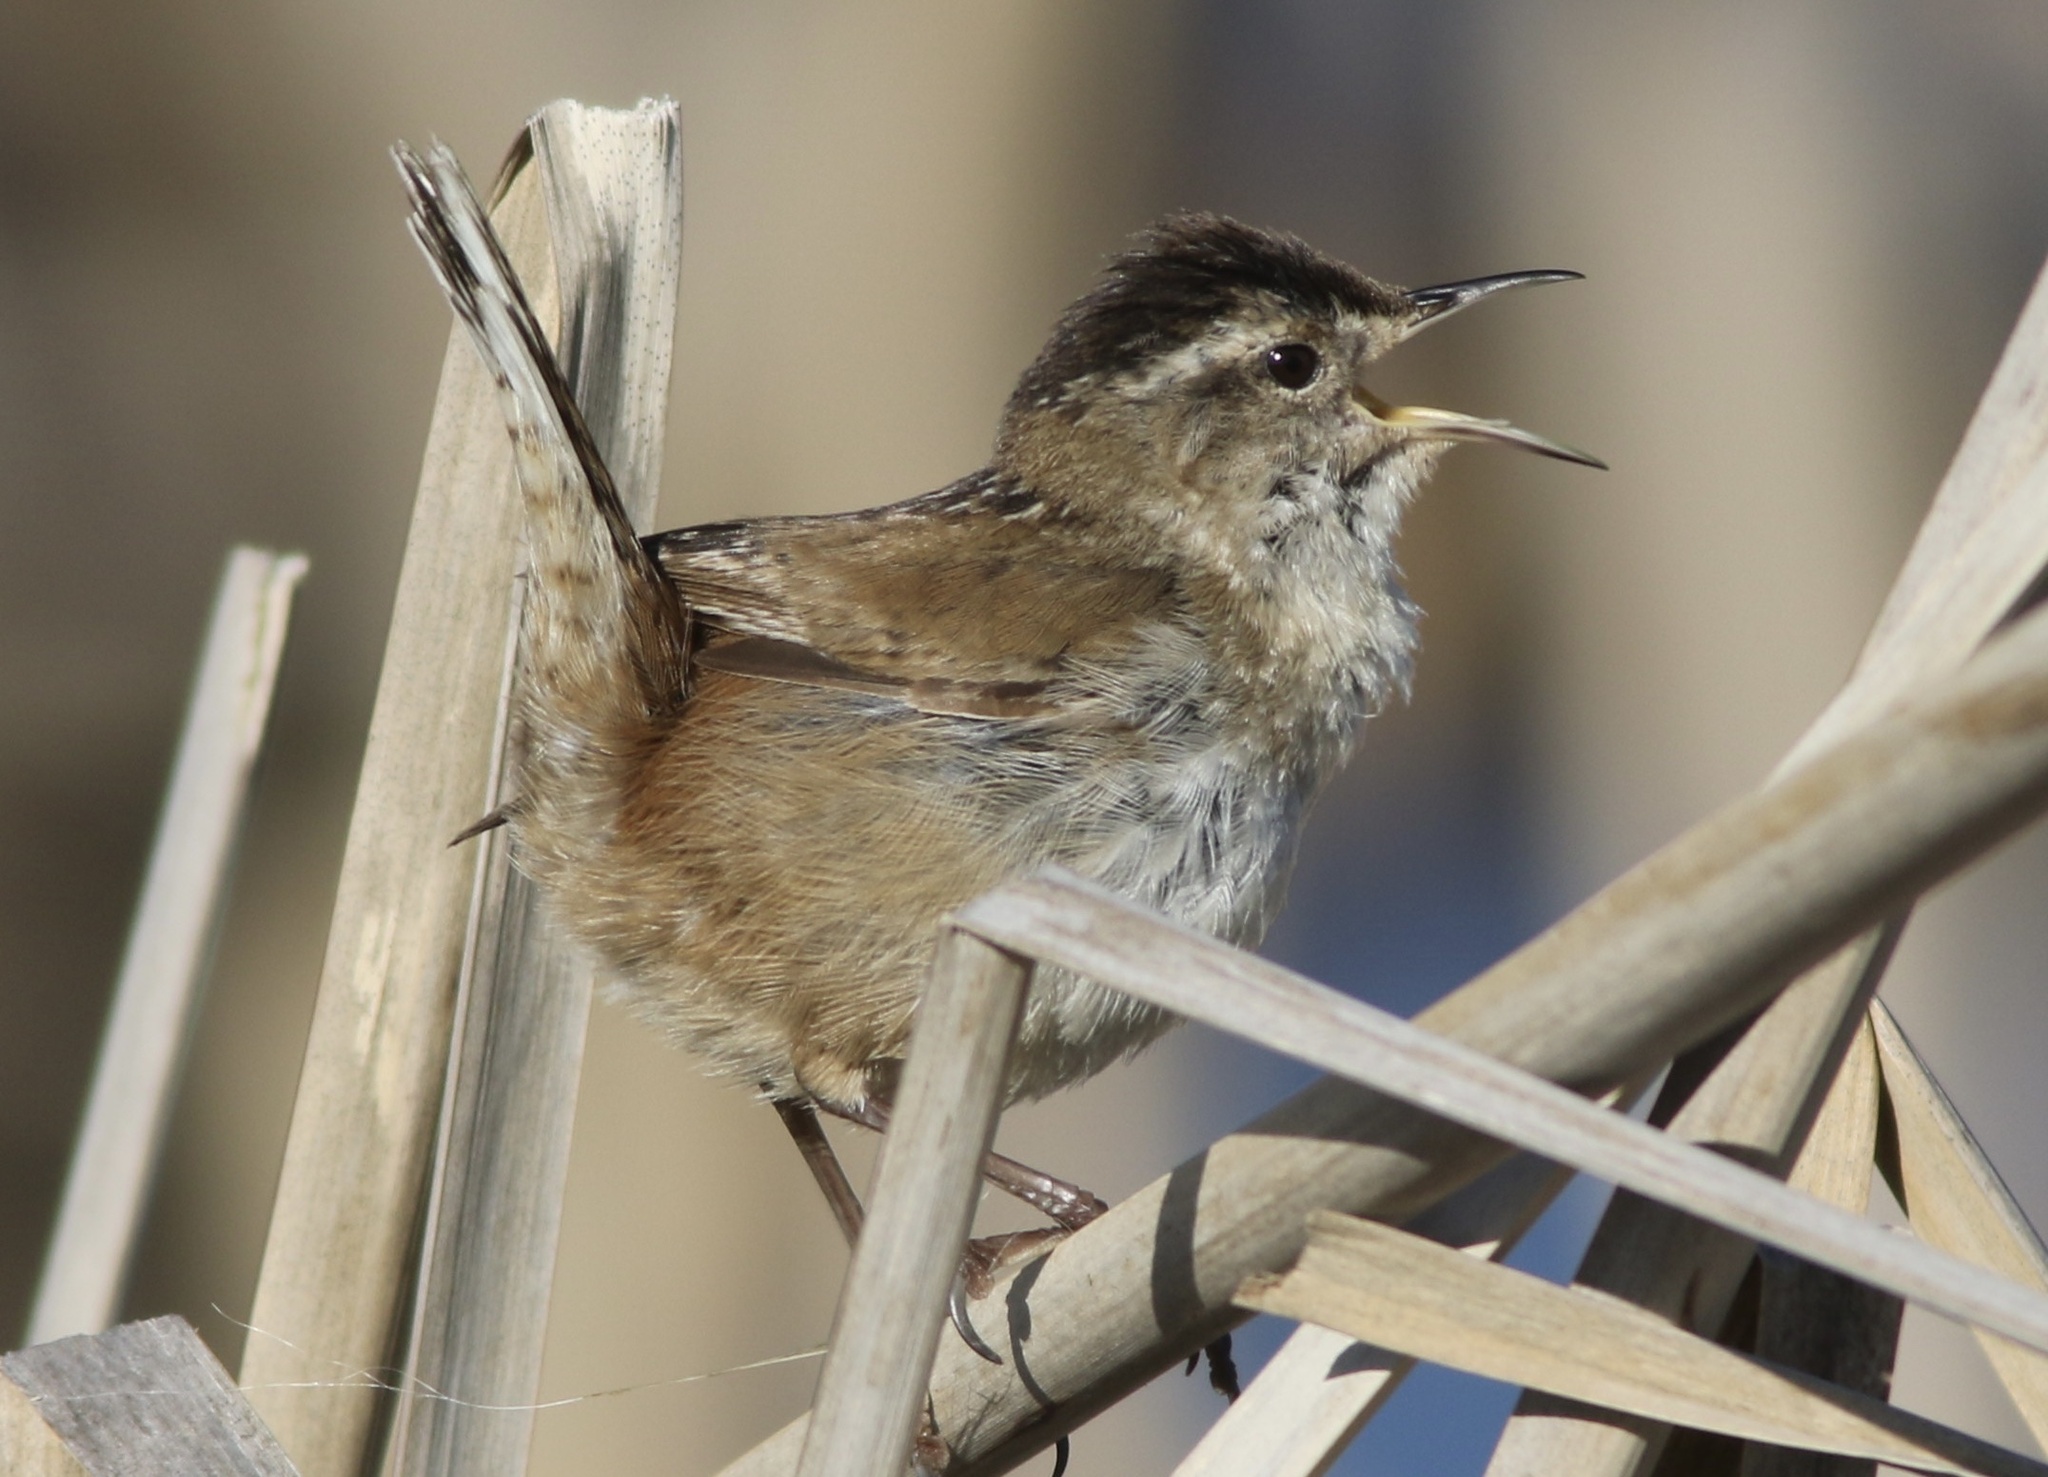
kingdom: Animalia
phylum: Chordata
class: Aves
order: Passeriformes
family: Troglodytidae
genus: Cistothorus
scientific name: Cistothorus palustris
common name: Marsh wren
